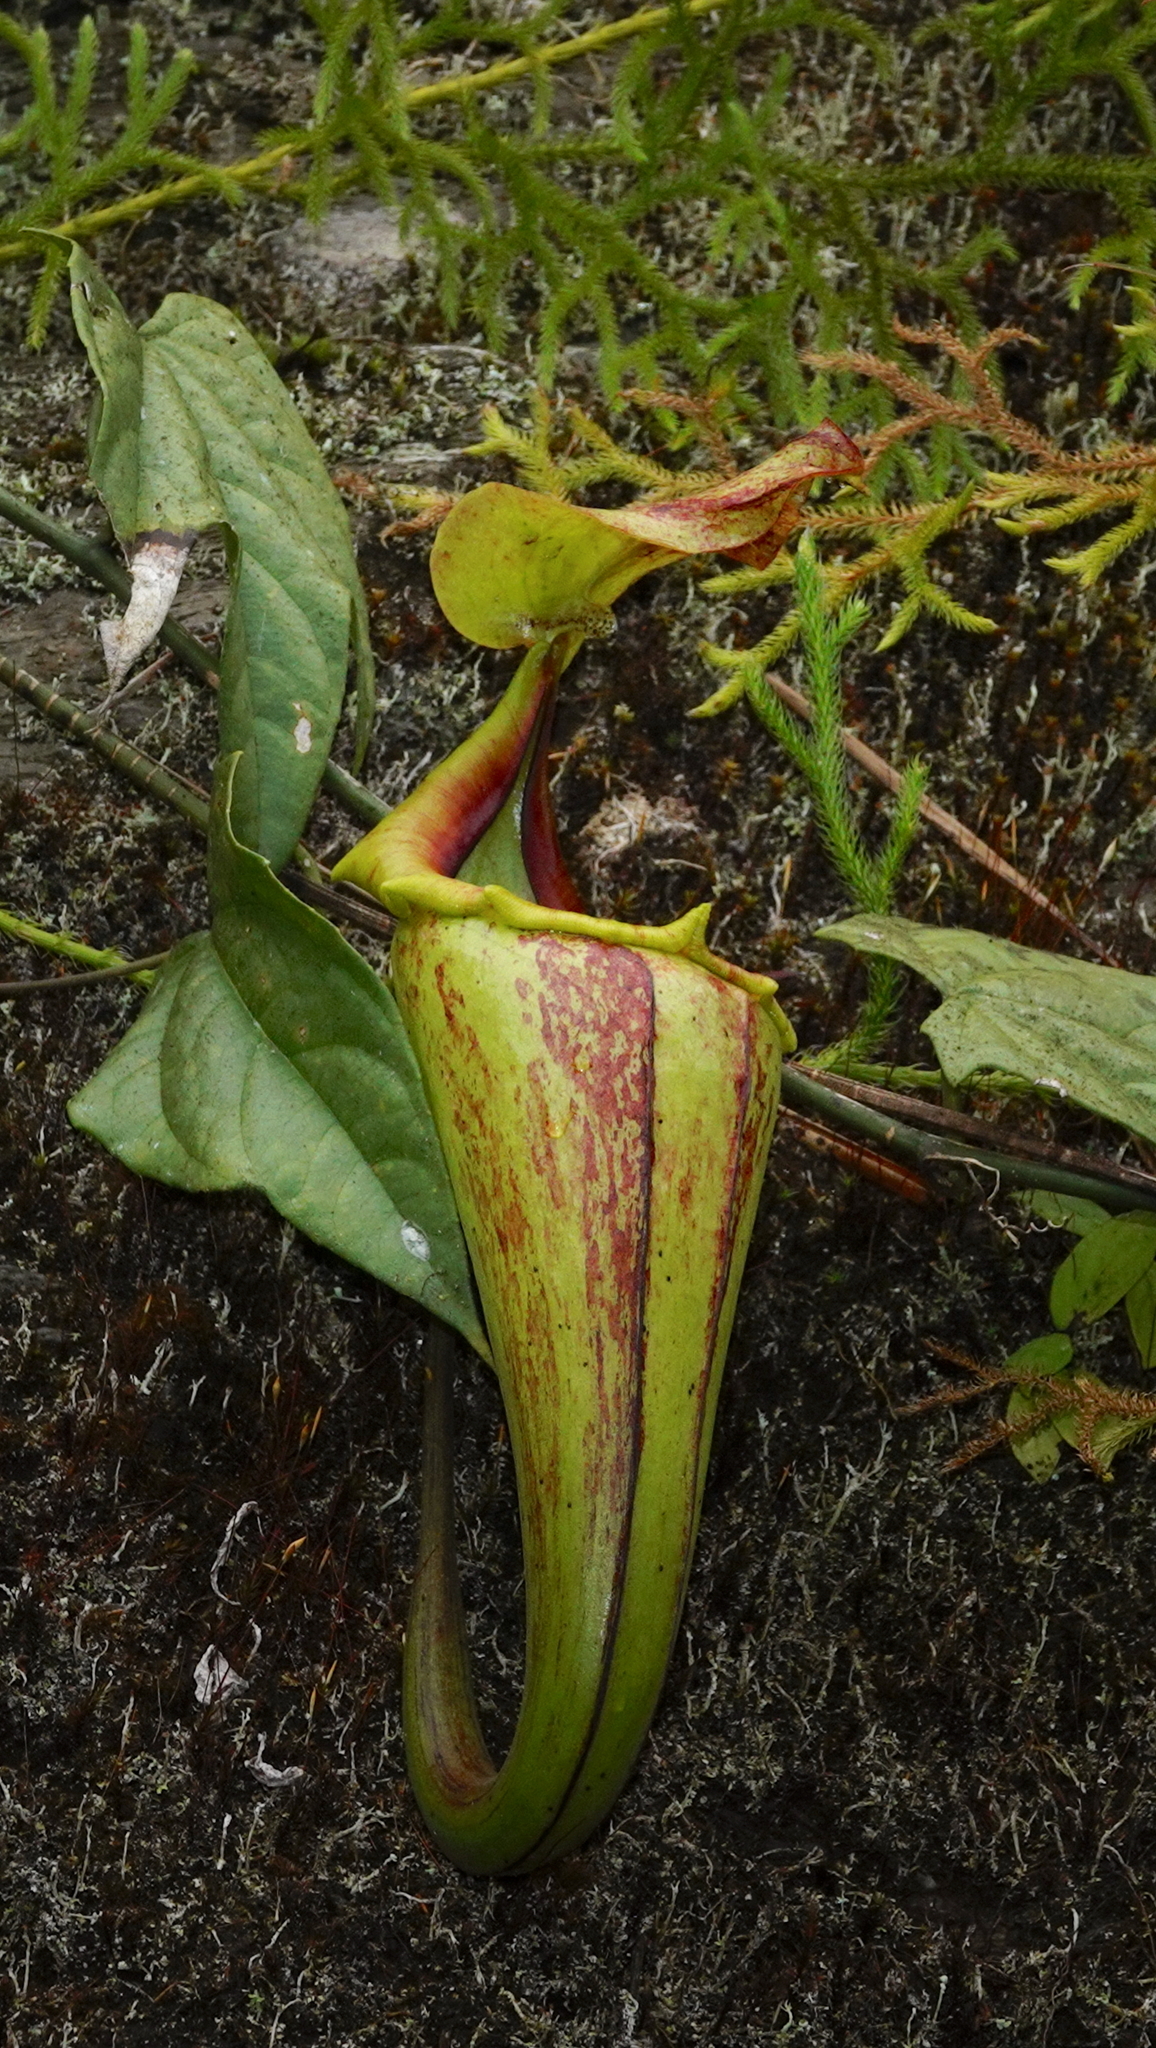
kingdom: Plantae
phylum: Tracheophyta
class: Magnoliopsida
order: Caryophyllales
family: Nepenthaceae
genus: Nepenthes
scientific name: Nepenthes maxima
